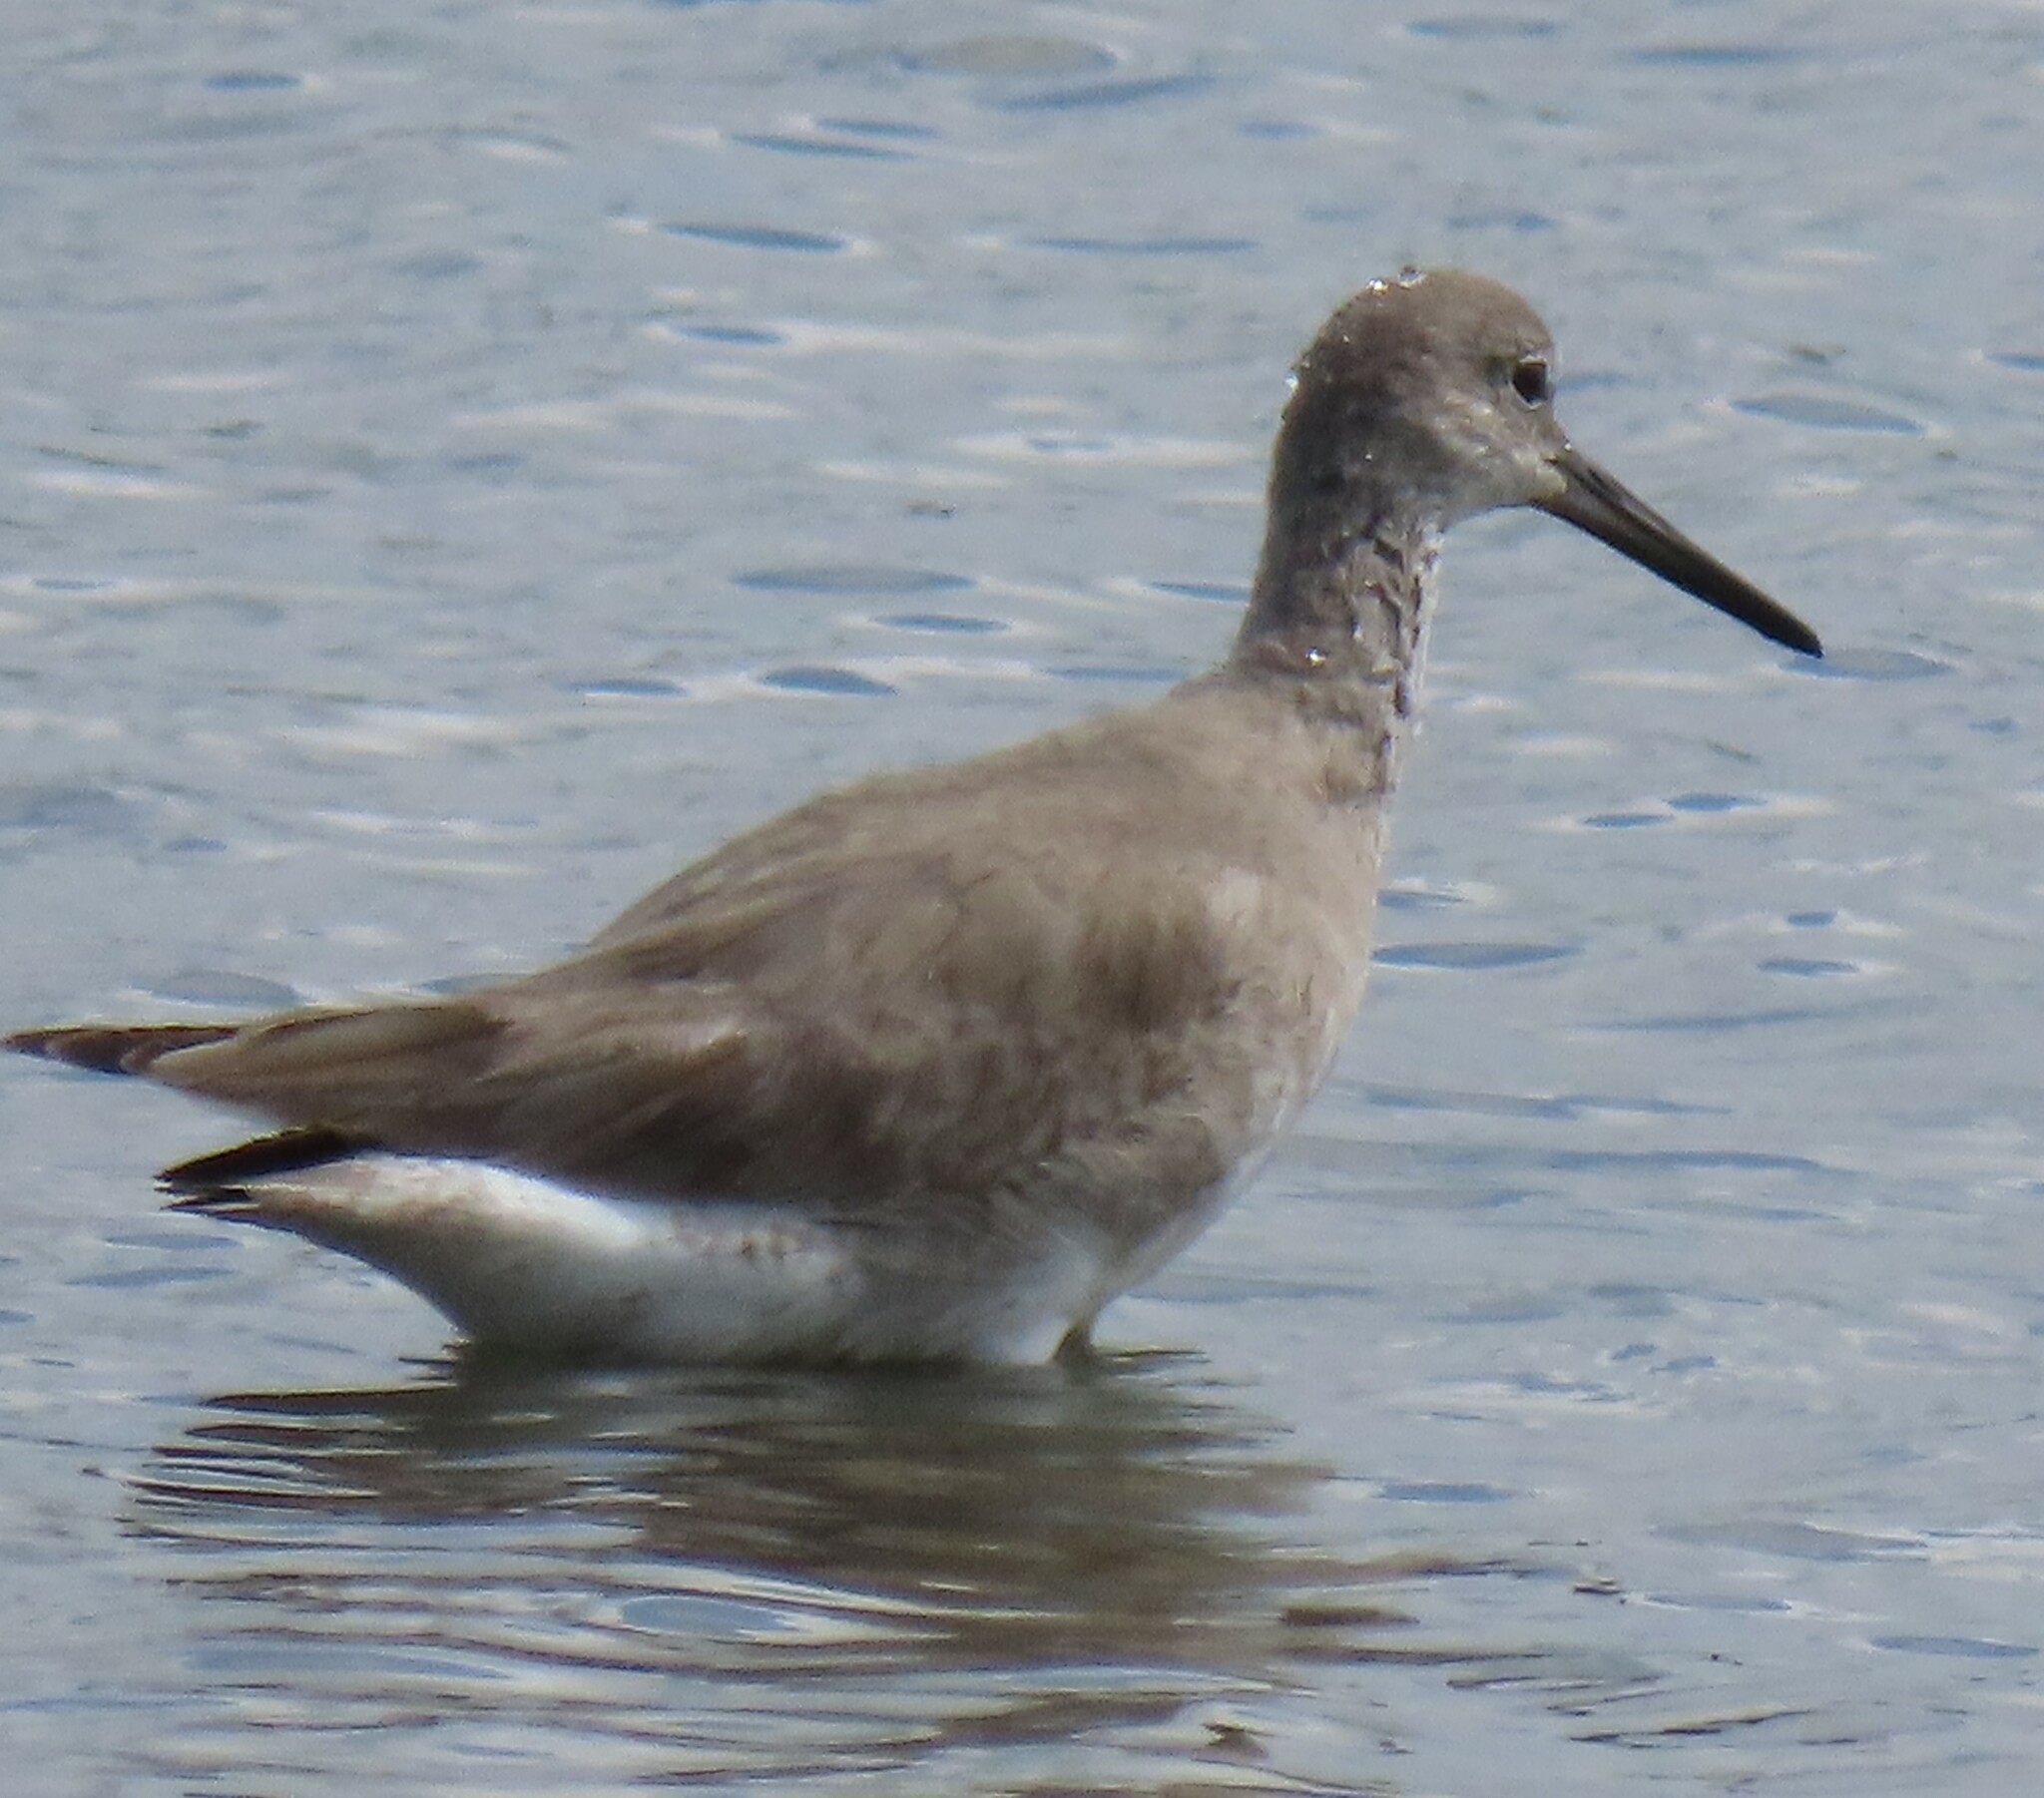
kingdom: Animalia
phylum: Chordata
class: Aves
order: Charadriiformes
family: Scolopacidae
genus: Tringa
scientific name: Tringa semipalmata
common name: Willet
